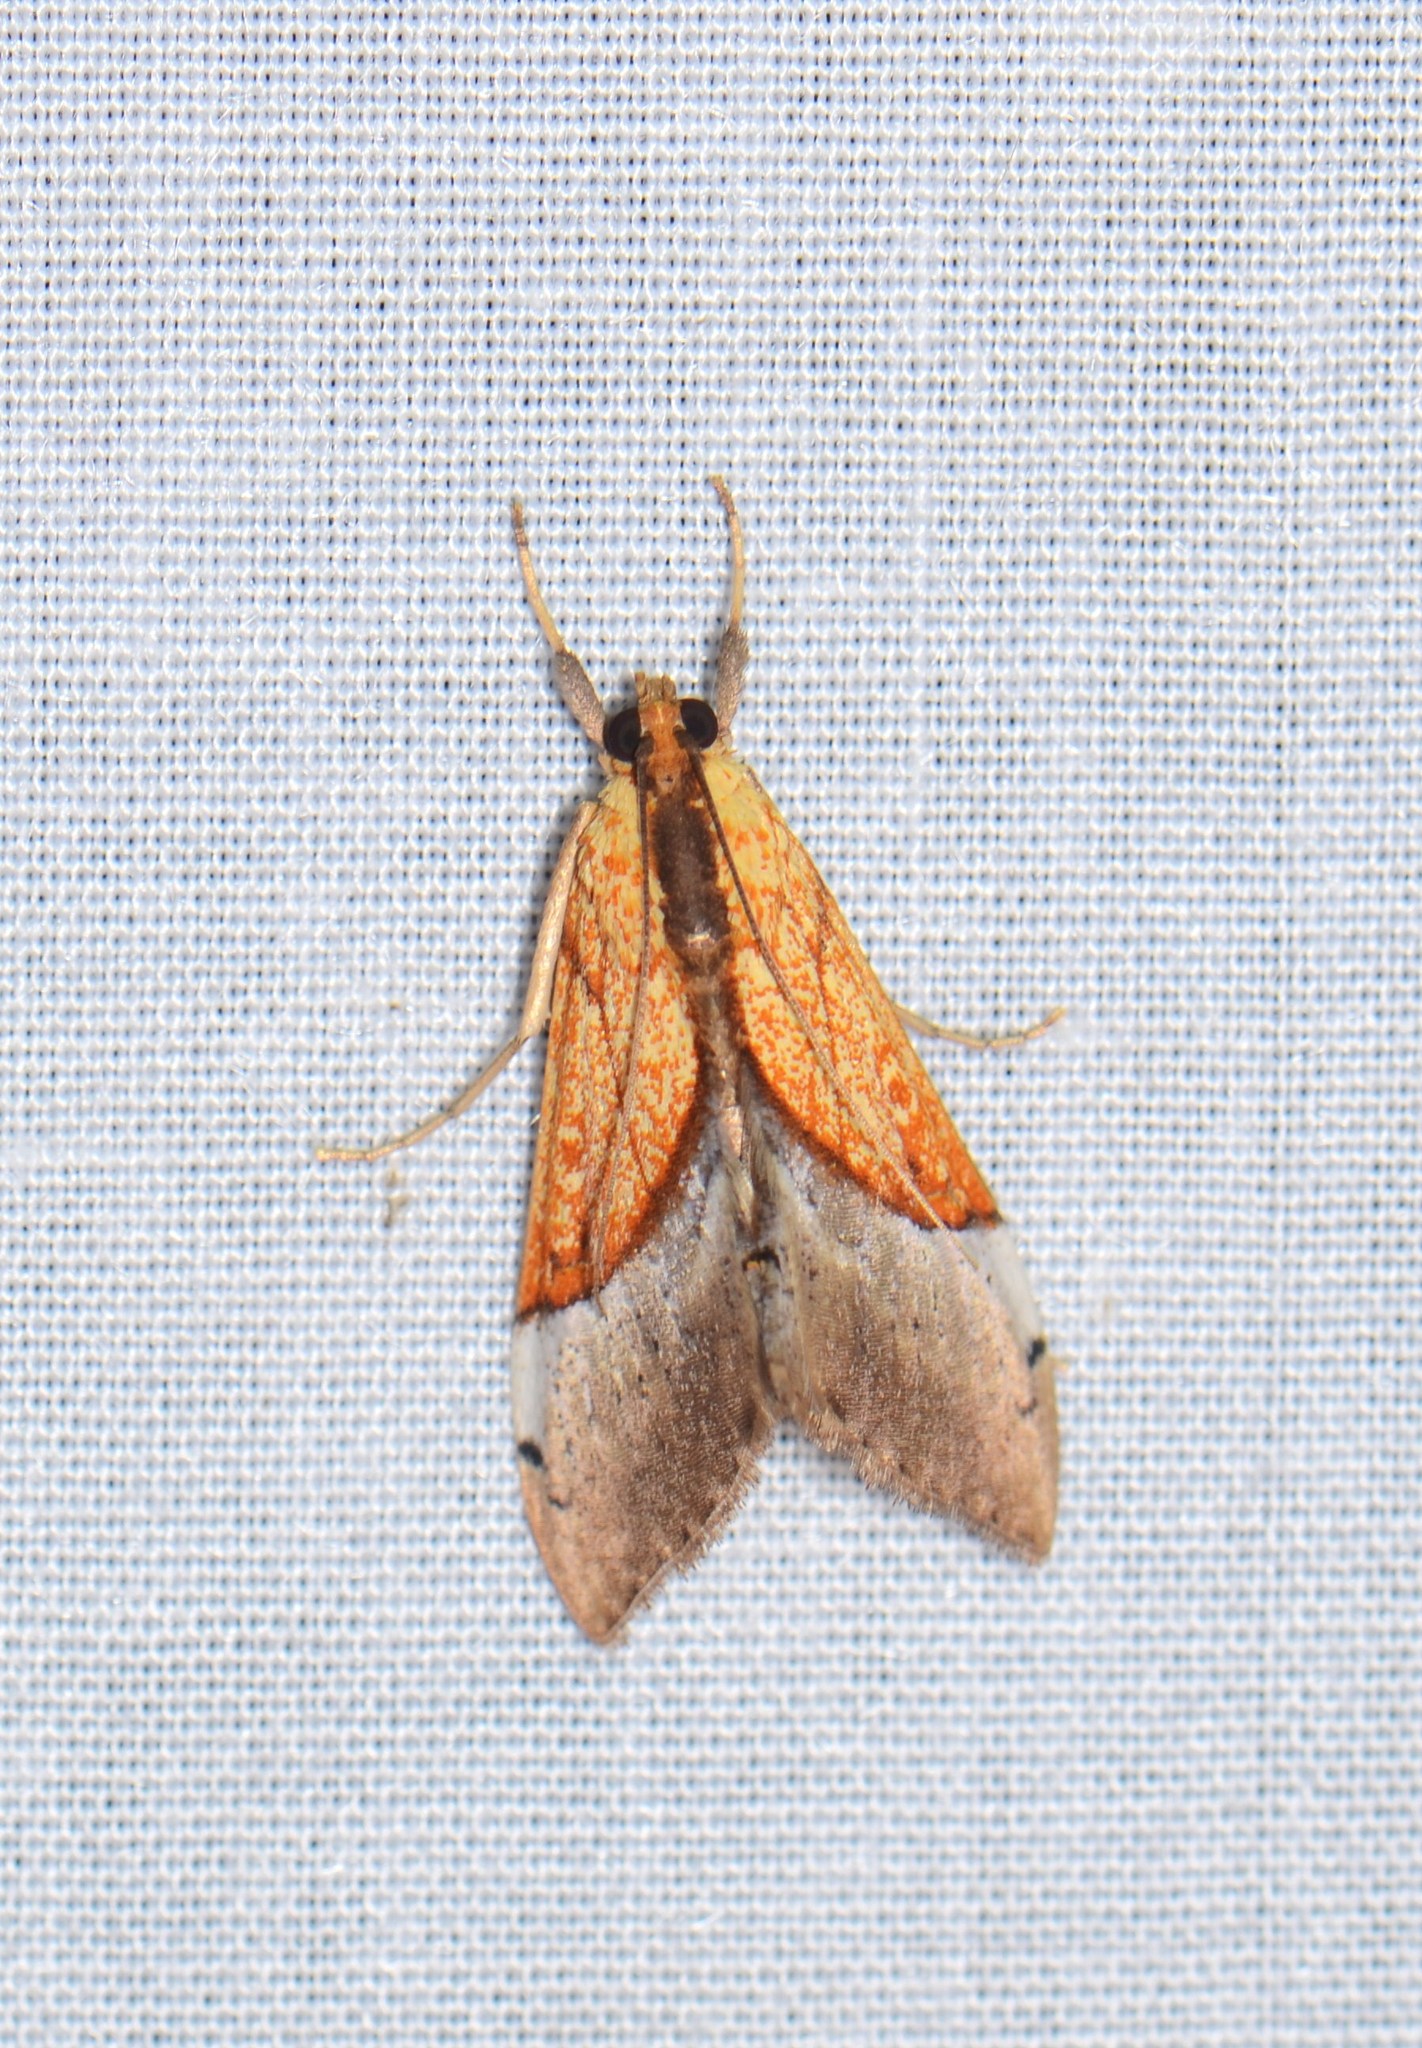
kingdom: Animalia
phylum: Arthropoda
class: Insecta
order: Lepidoptera
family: Crambidae
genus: Agrotera
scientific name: Agrotera
